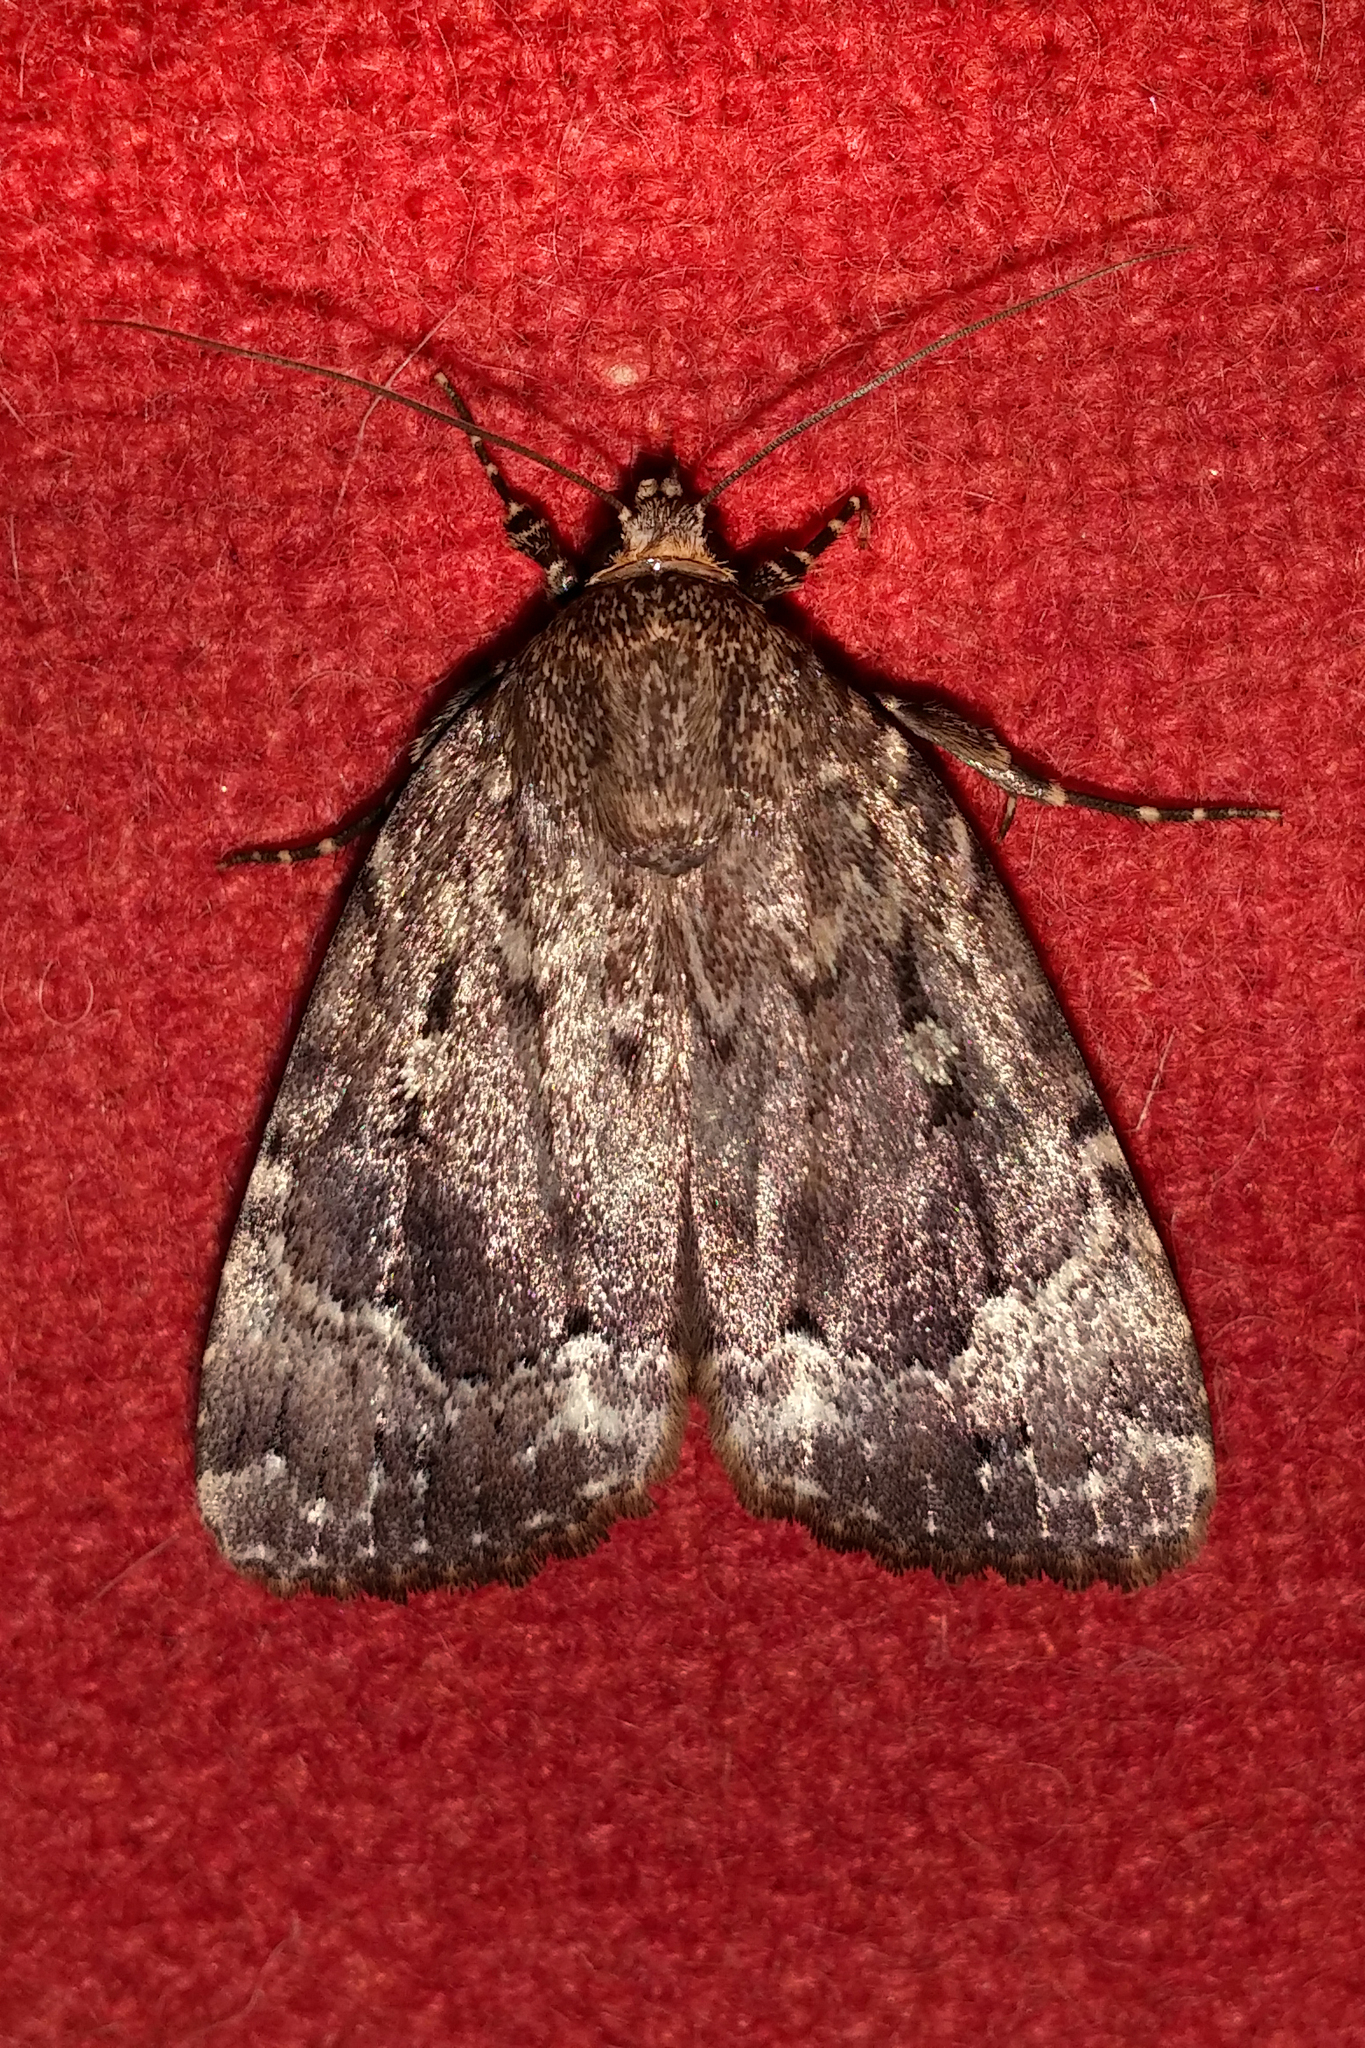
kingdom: Animalia
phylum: Arthropoda
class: Insecta
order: Lepidoptera
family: Noctuidae
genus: Amphipyra
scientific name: Amphipyra pyramidoides
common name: American copper underwing
